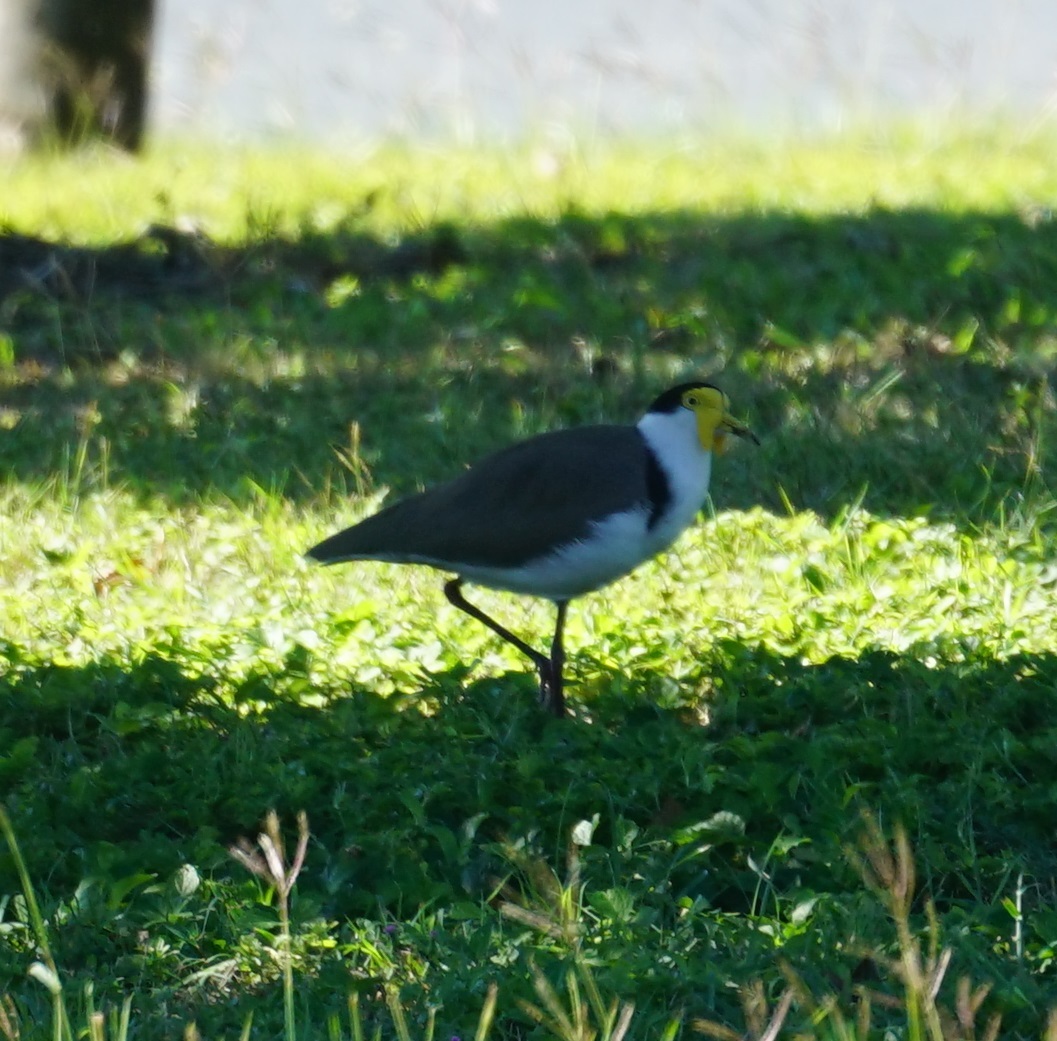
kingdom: Animalia
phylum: Chordata
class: Aves
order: Charadriiformes
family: Charadriidae
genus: Vanellus
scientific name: Vanellus miles
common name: Masked lapwing
